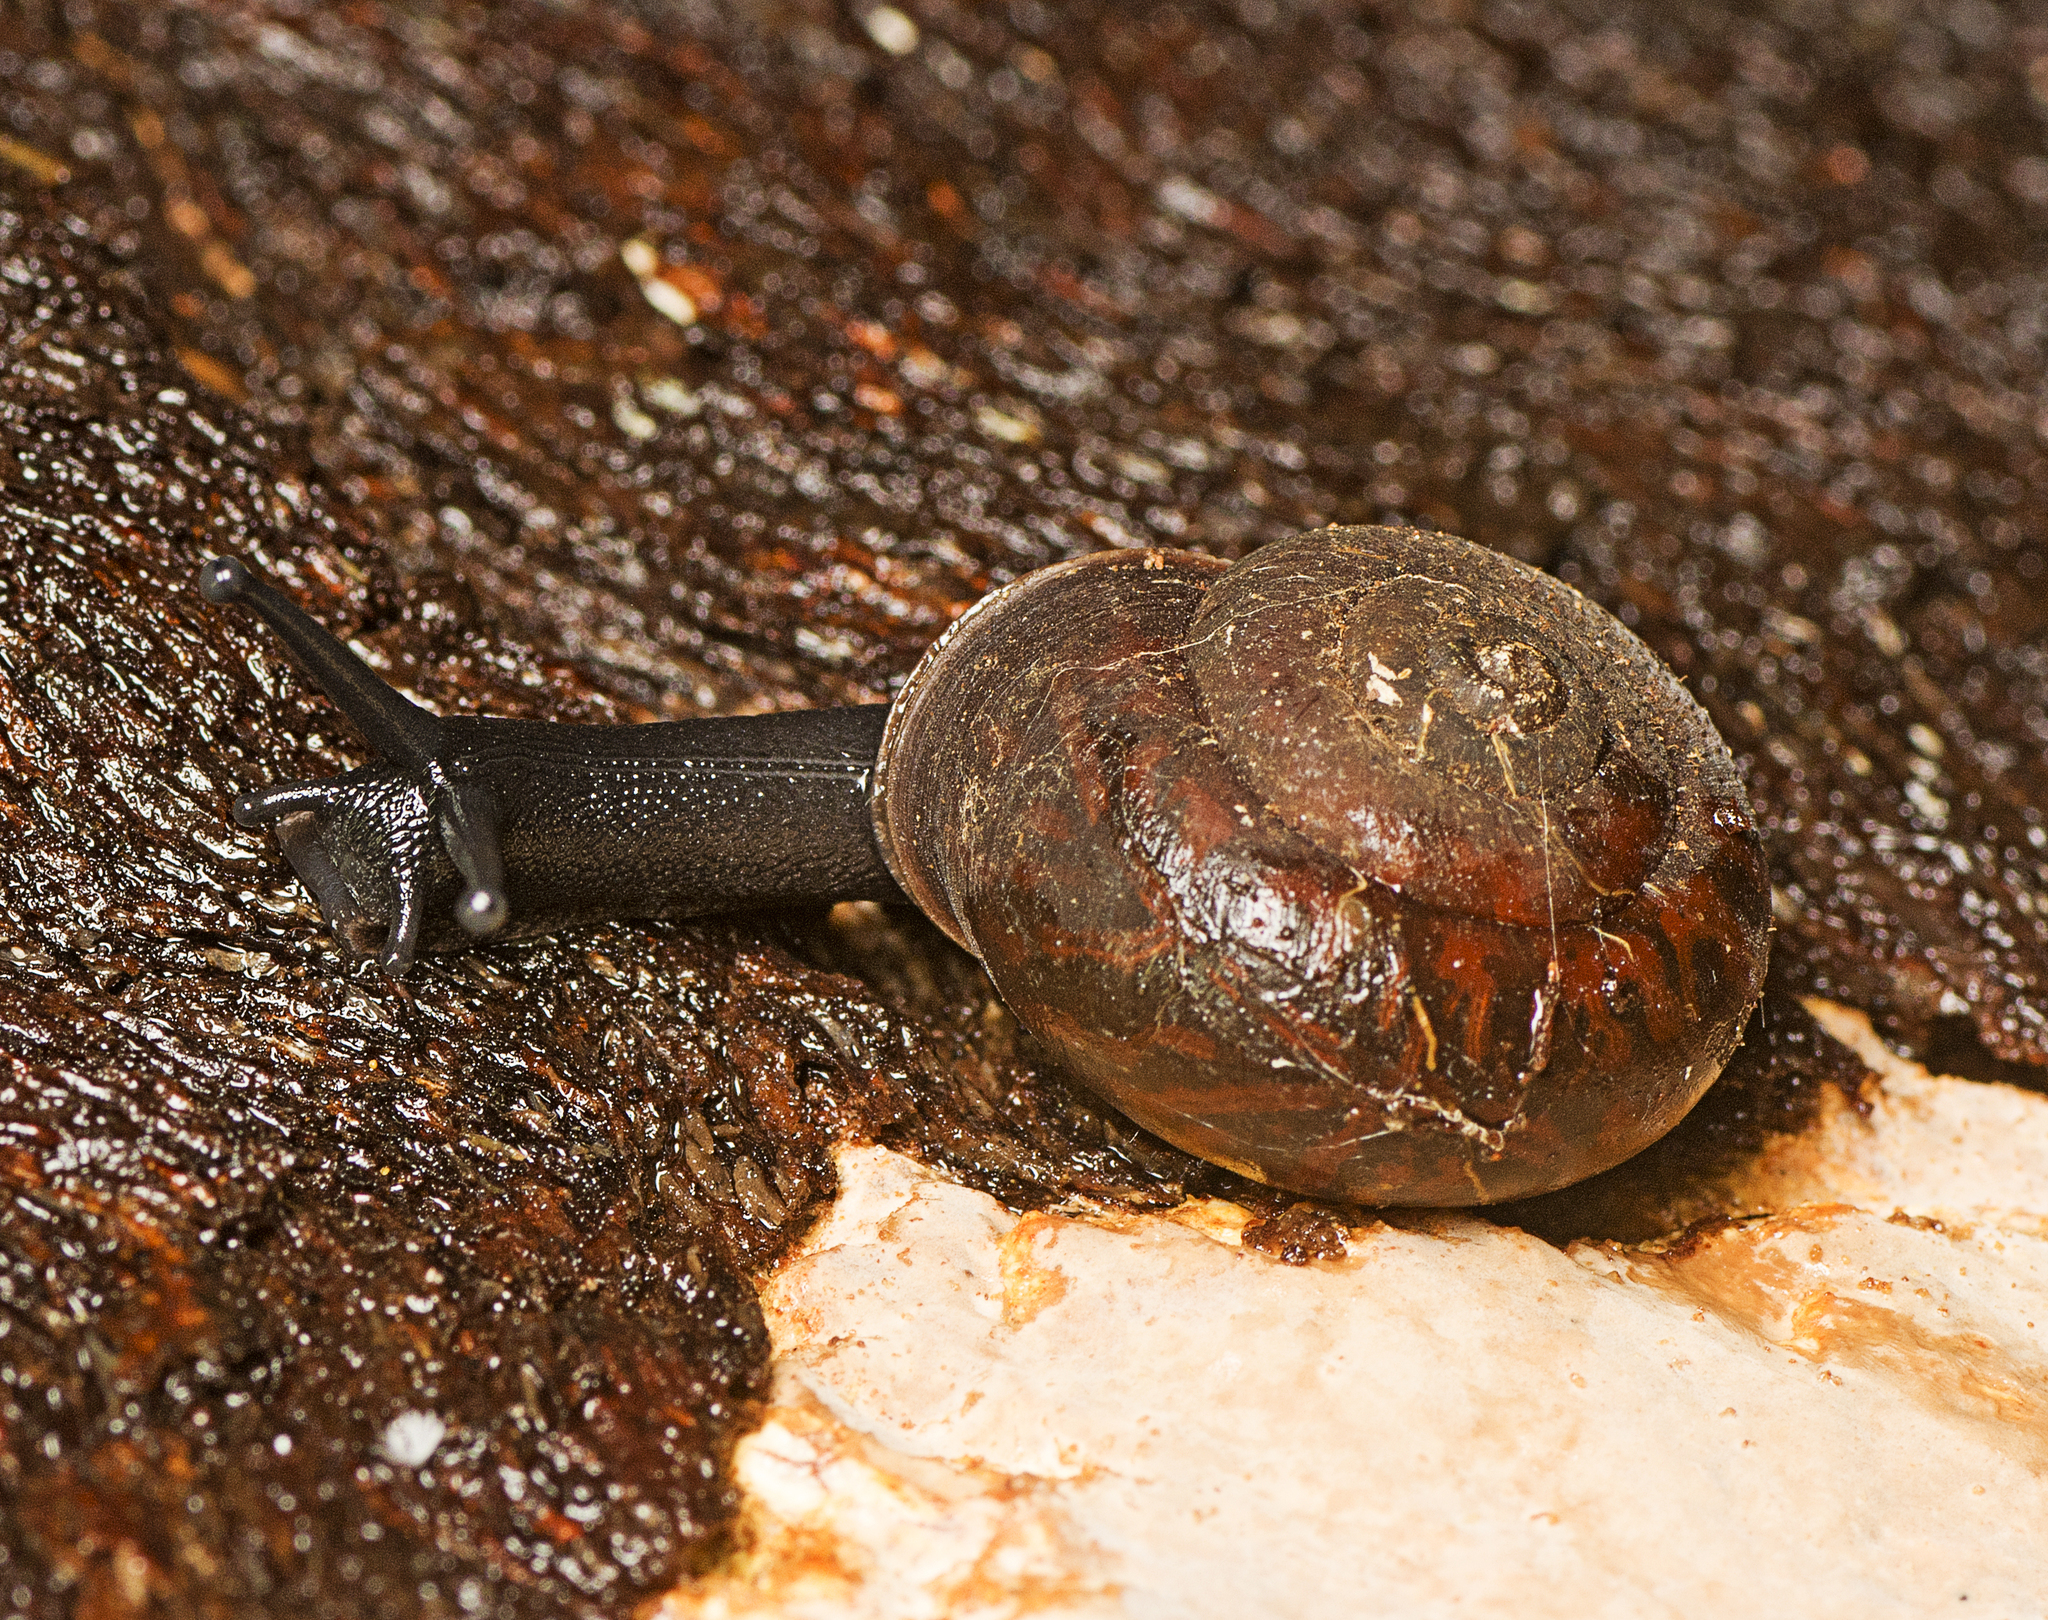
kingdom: Animalia
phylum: Mollusca
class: Gastropoda
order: Stylommatophora
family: Camaenidae
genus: Ramogenia
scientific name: Ramogenia challengeri
